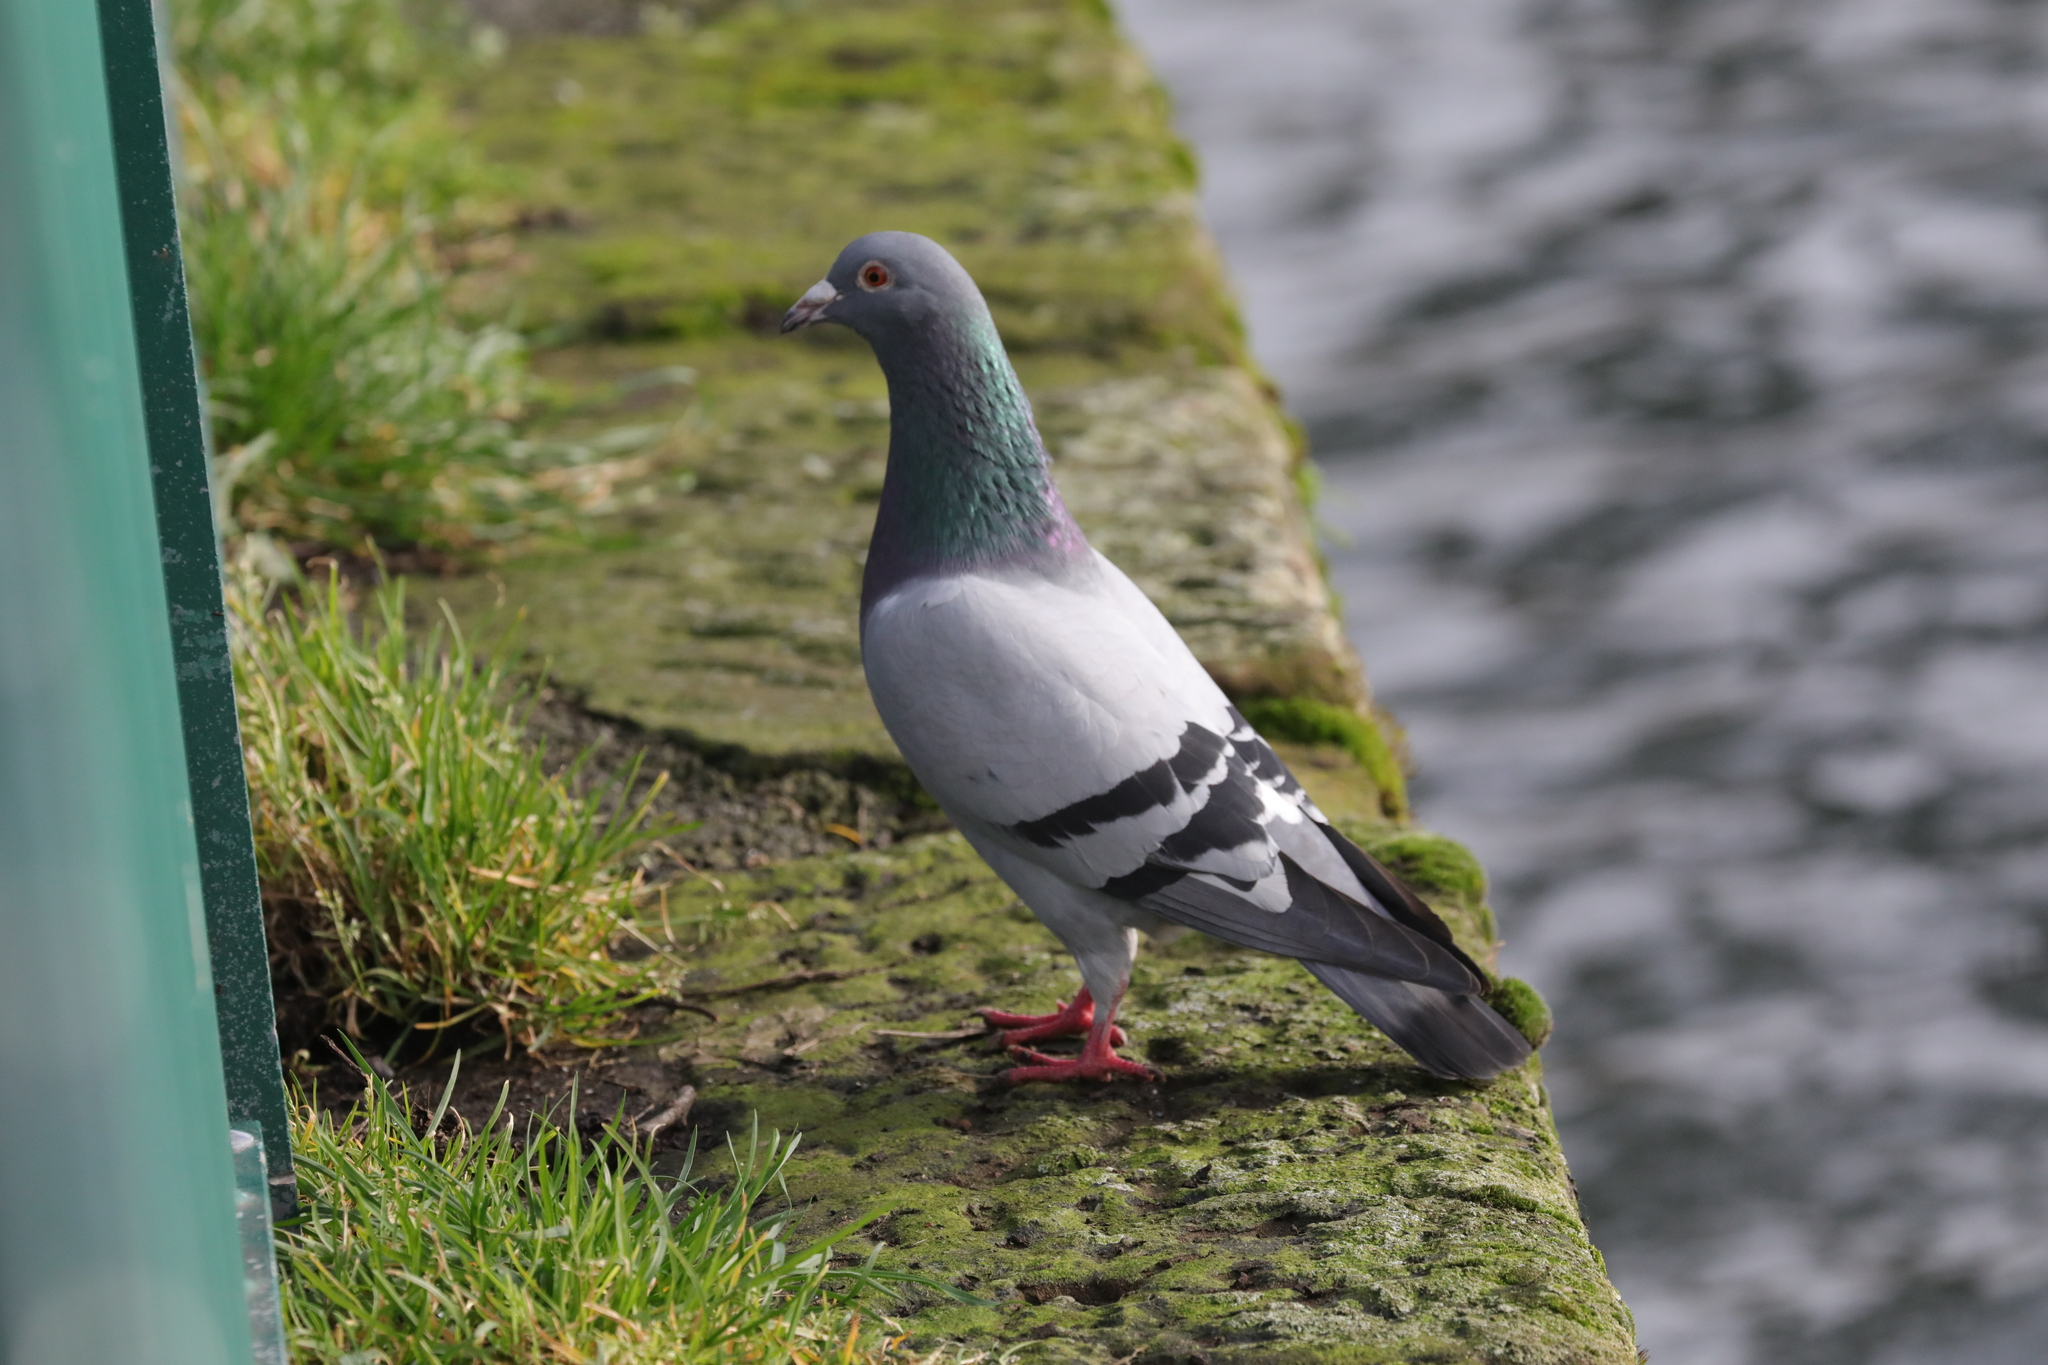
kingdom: Animalia
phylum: Chordata
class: Aves
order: Columbiformes
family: Columbidae
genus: Columba
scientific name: Columba livia
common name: Rock pigeon
